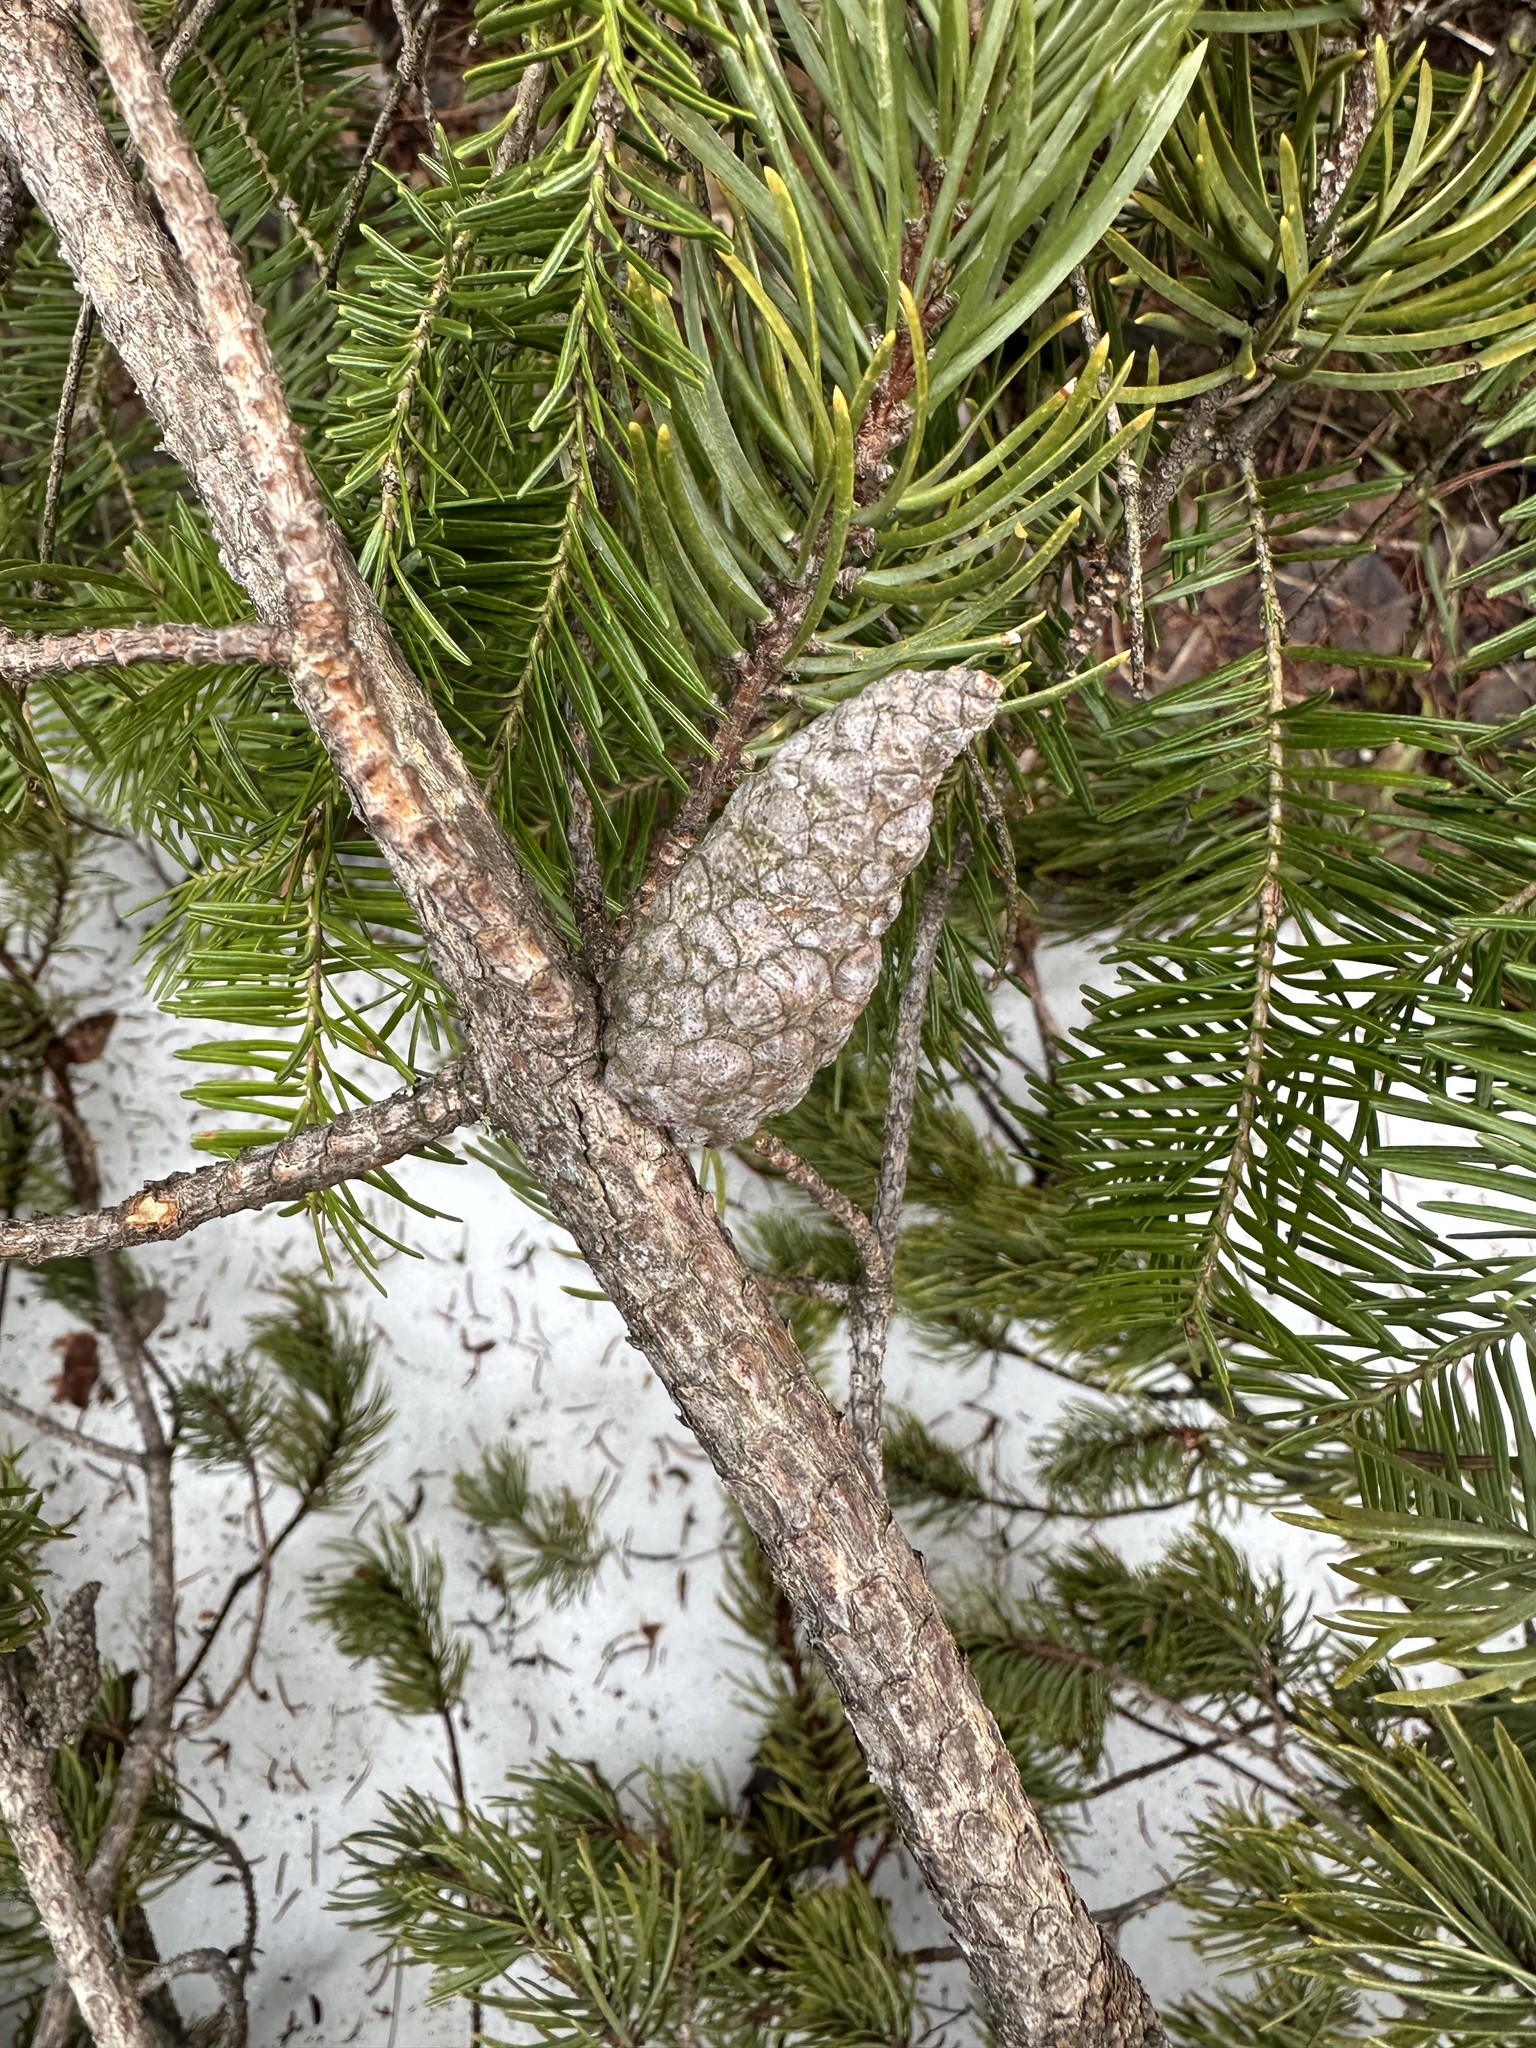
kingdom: Plantae
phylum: Tracheophyta
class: Pinopsida
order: Pinales
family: Pinaceae
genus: Pinus
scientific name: Pinus banksiana
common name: Jack pine
